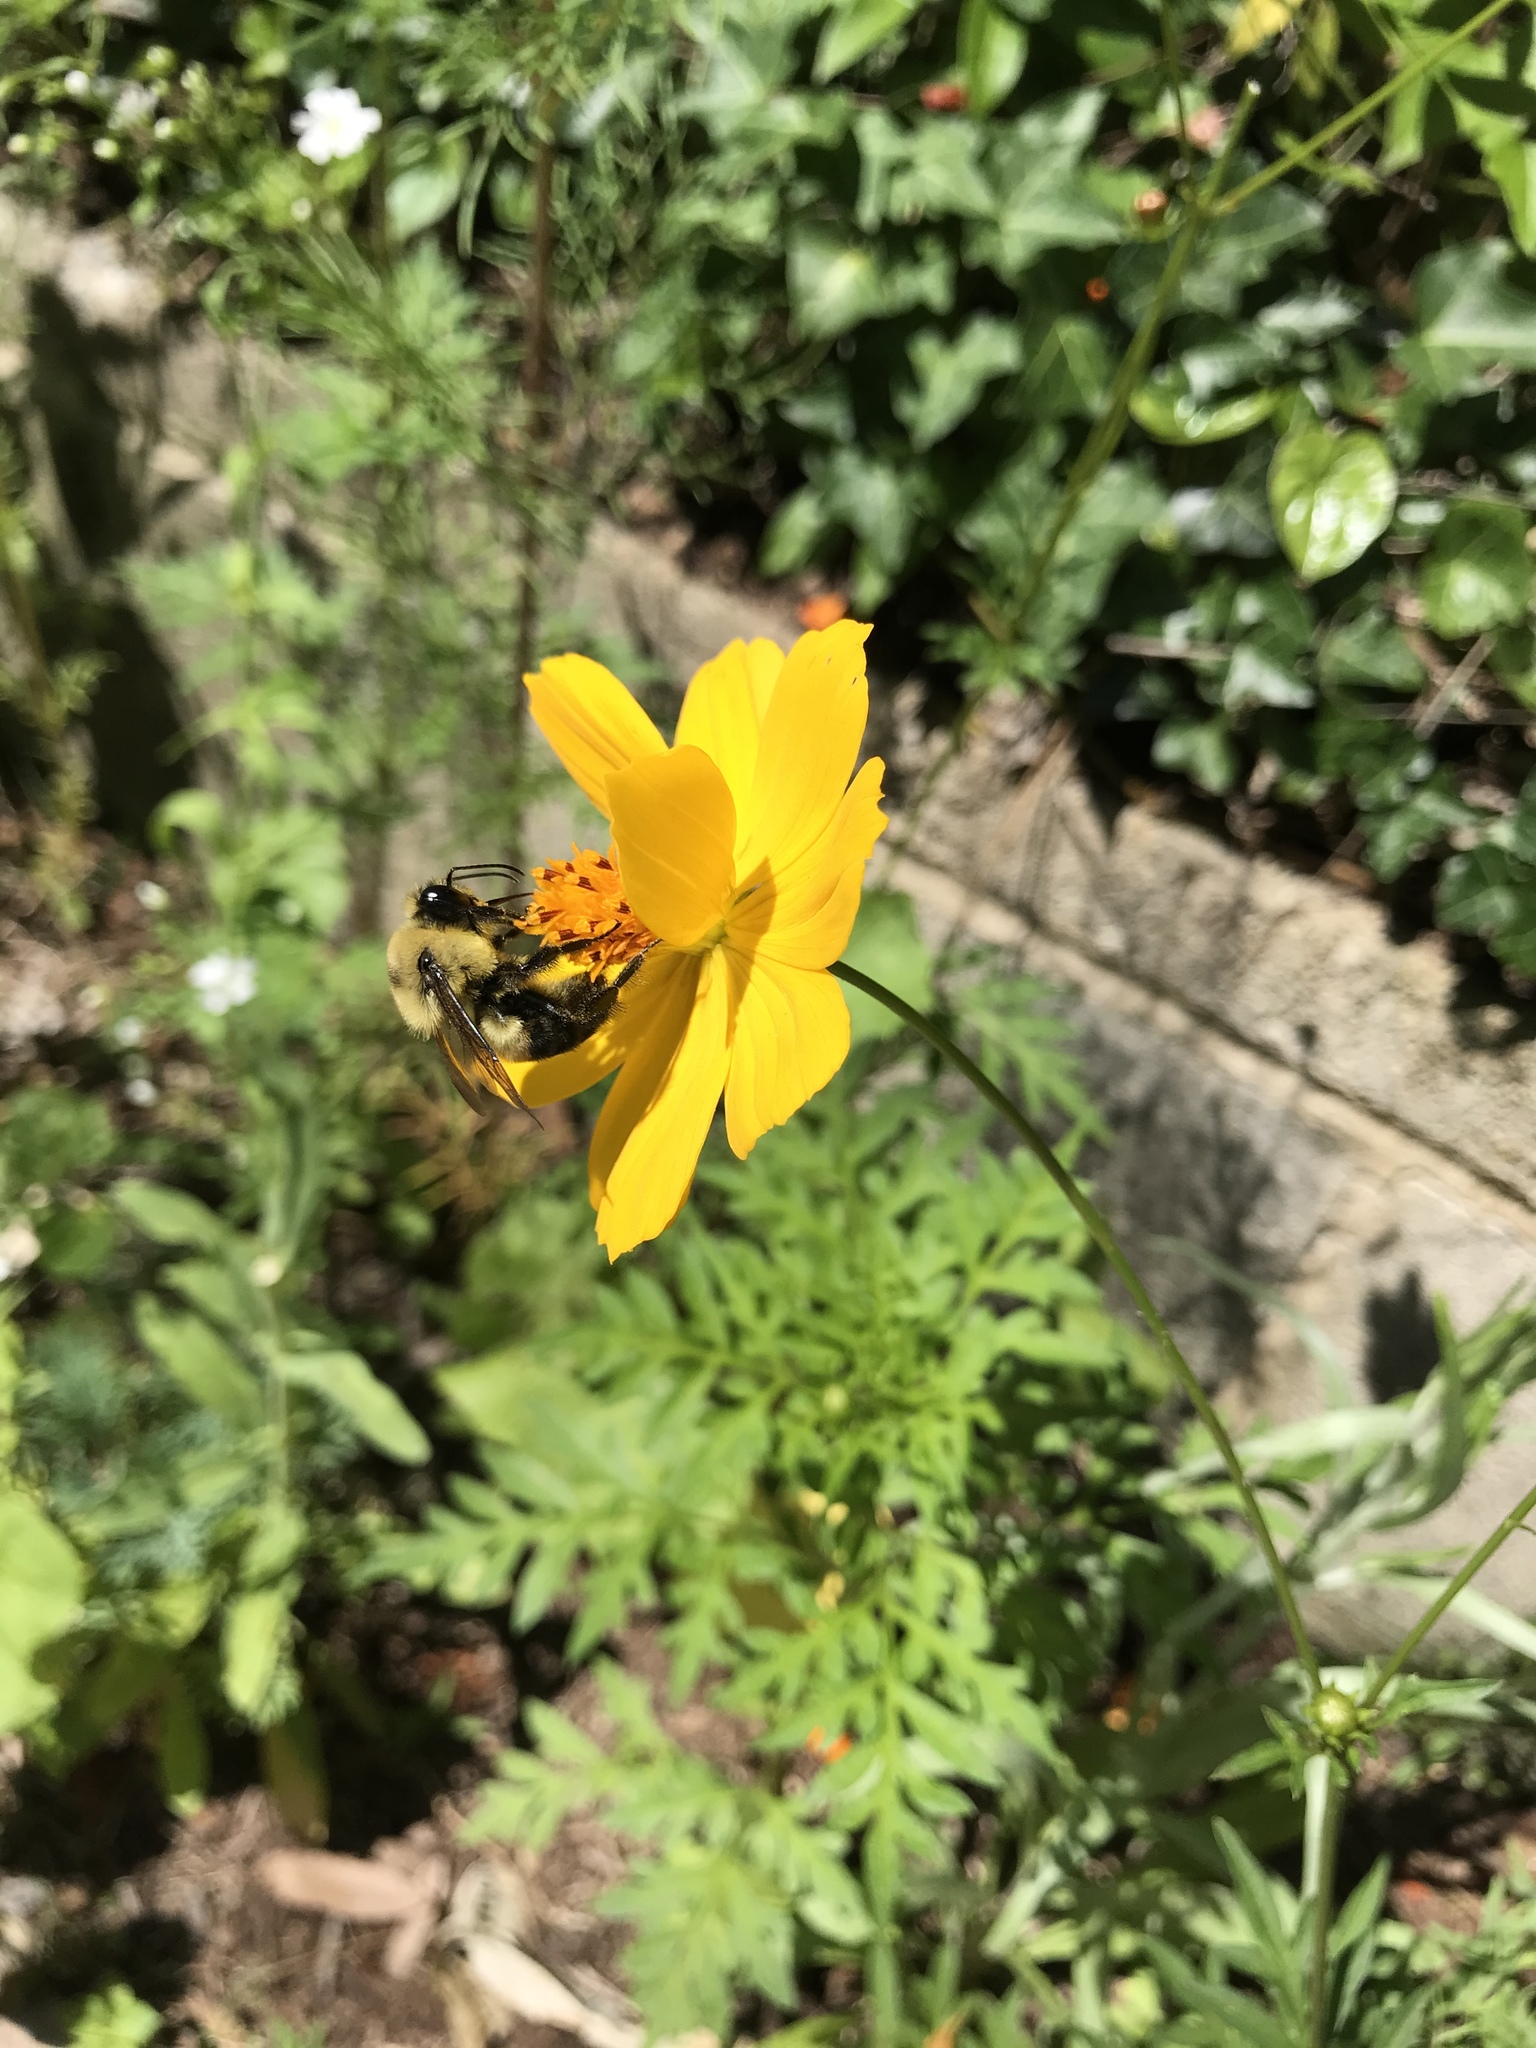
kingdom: Animalia
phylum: Arthropoda
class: Insecta
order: Hymenoptera
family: Apidae
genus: Bombus
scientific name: Bombus griseocollis
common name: Brown-belted bumble bee
